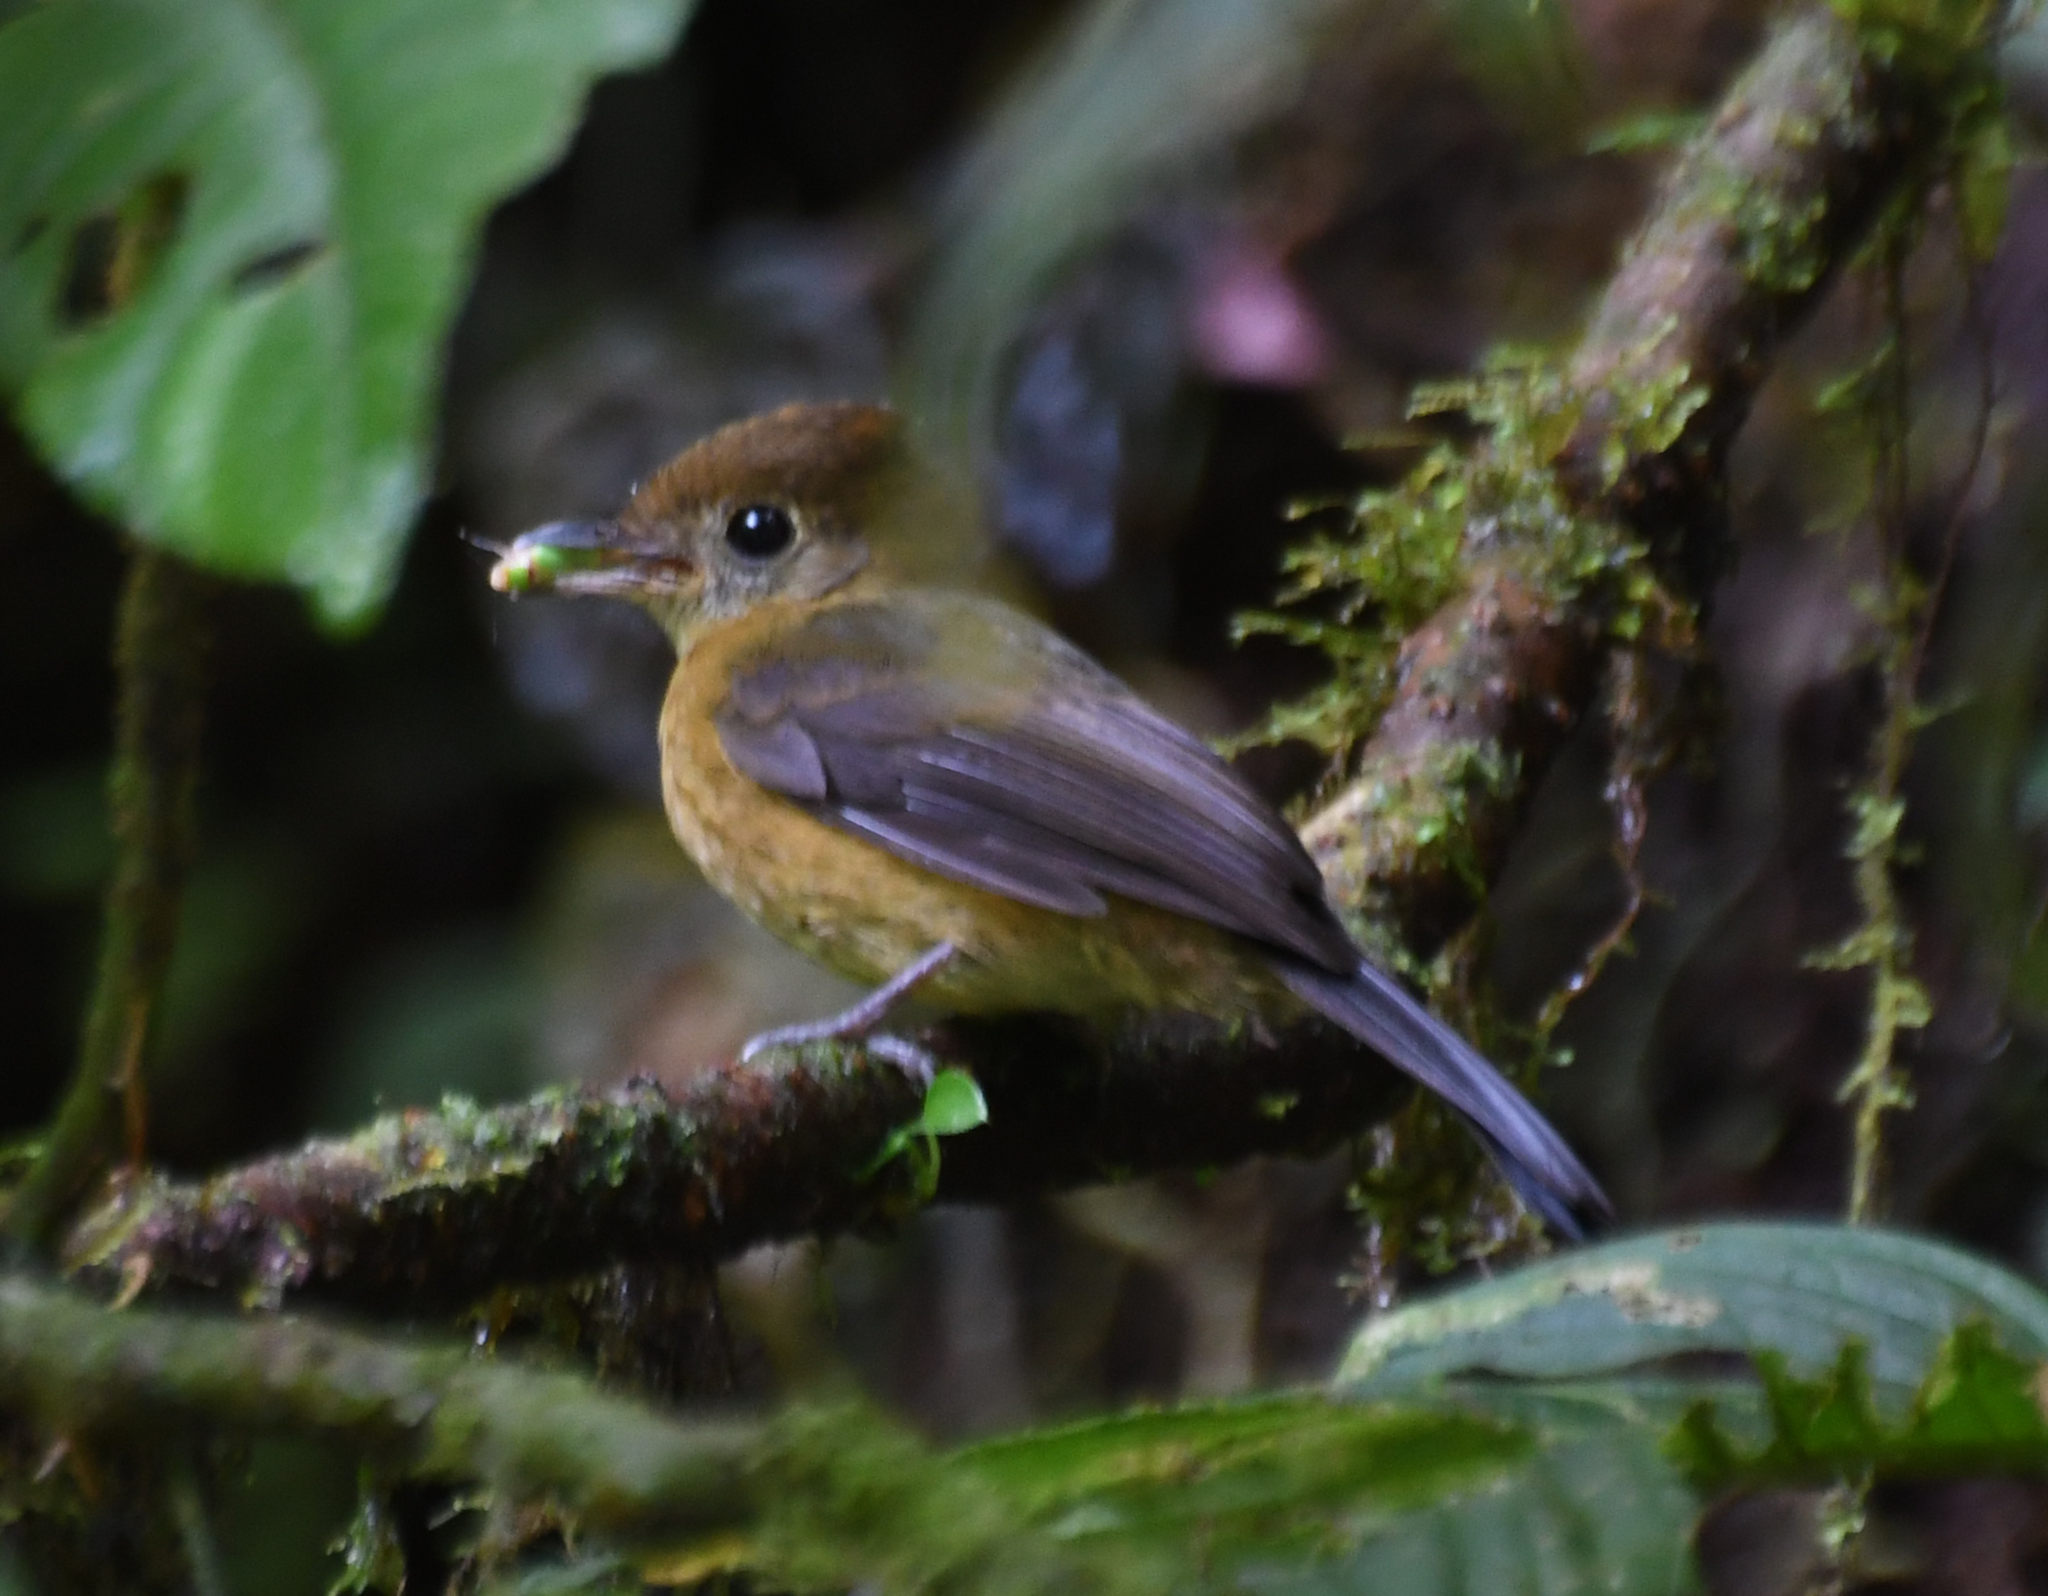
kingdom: Animalia
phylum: Chordata
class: Aves
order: Passeriformes
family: Tyrannidae
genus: Myiobius
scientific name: Myiobius villosus
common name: Tawny-breasted flycatcher
